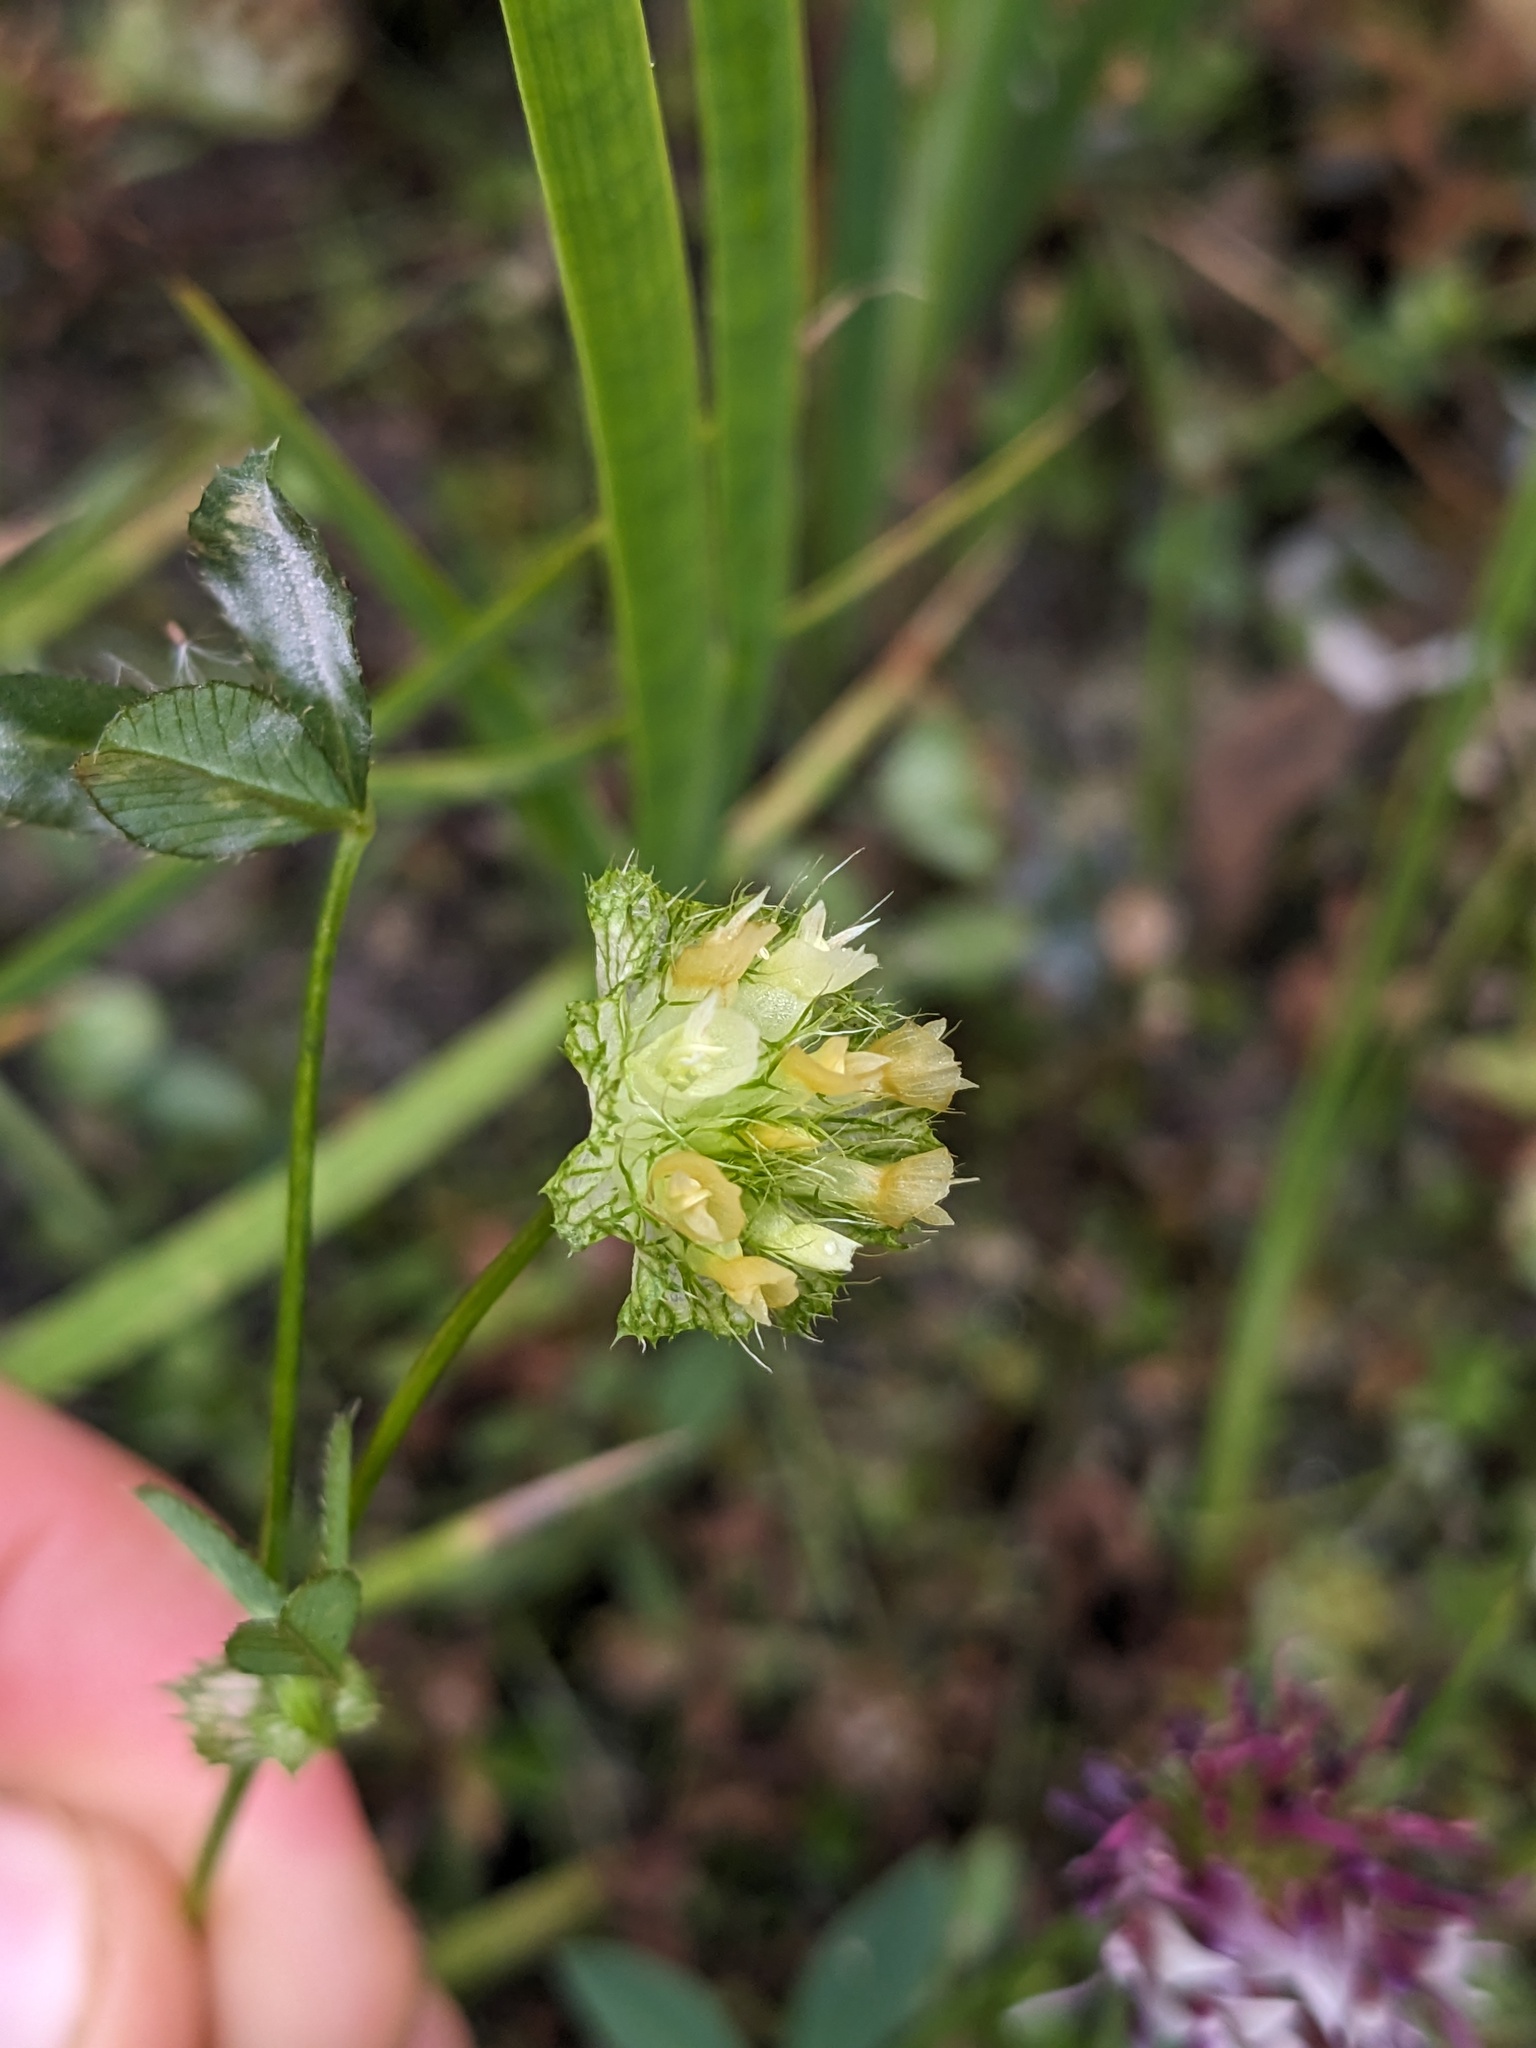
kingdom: Plantae
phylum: Tracheophyta
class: Magnoliopsida
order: Fabales
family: Fabaceae
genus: Trifolium
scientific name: Trifolium cyathiferum
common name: Bowl clover
